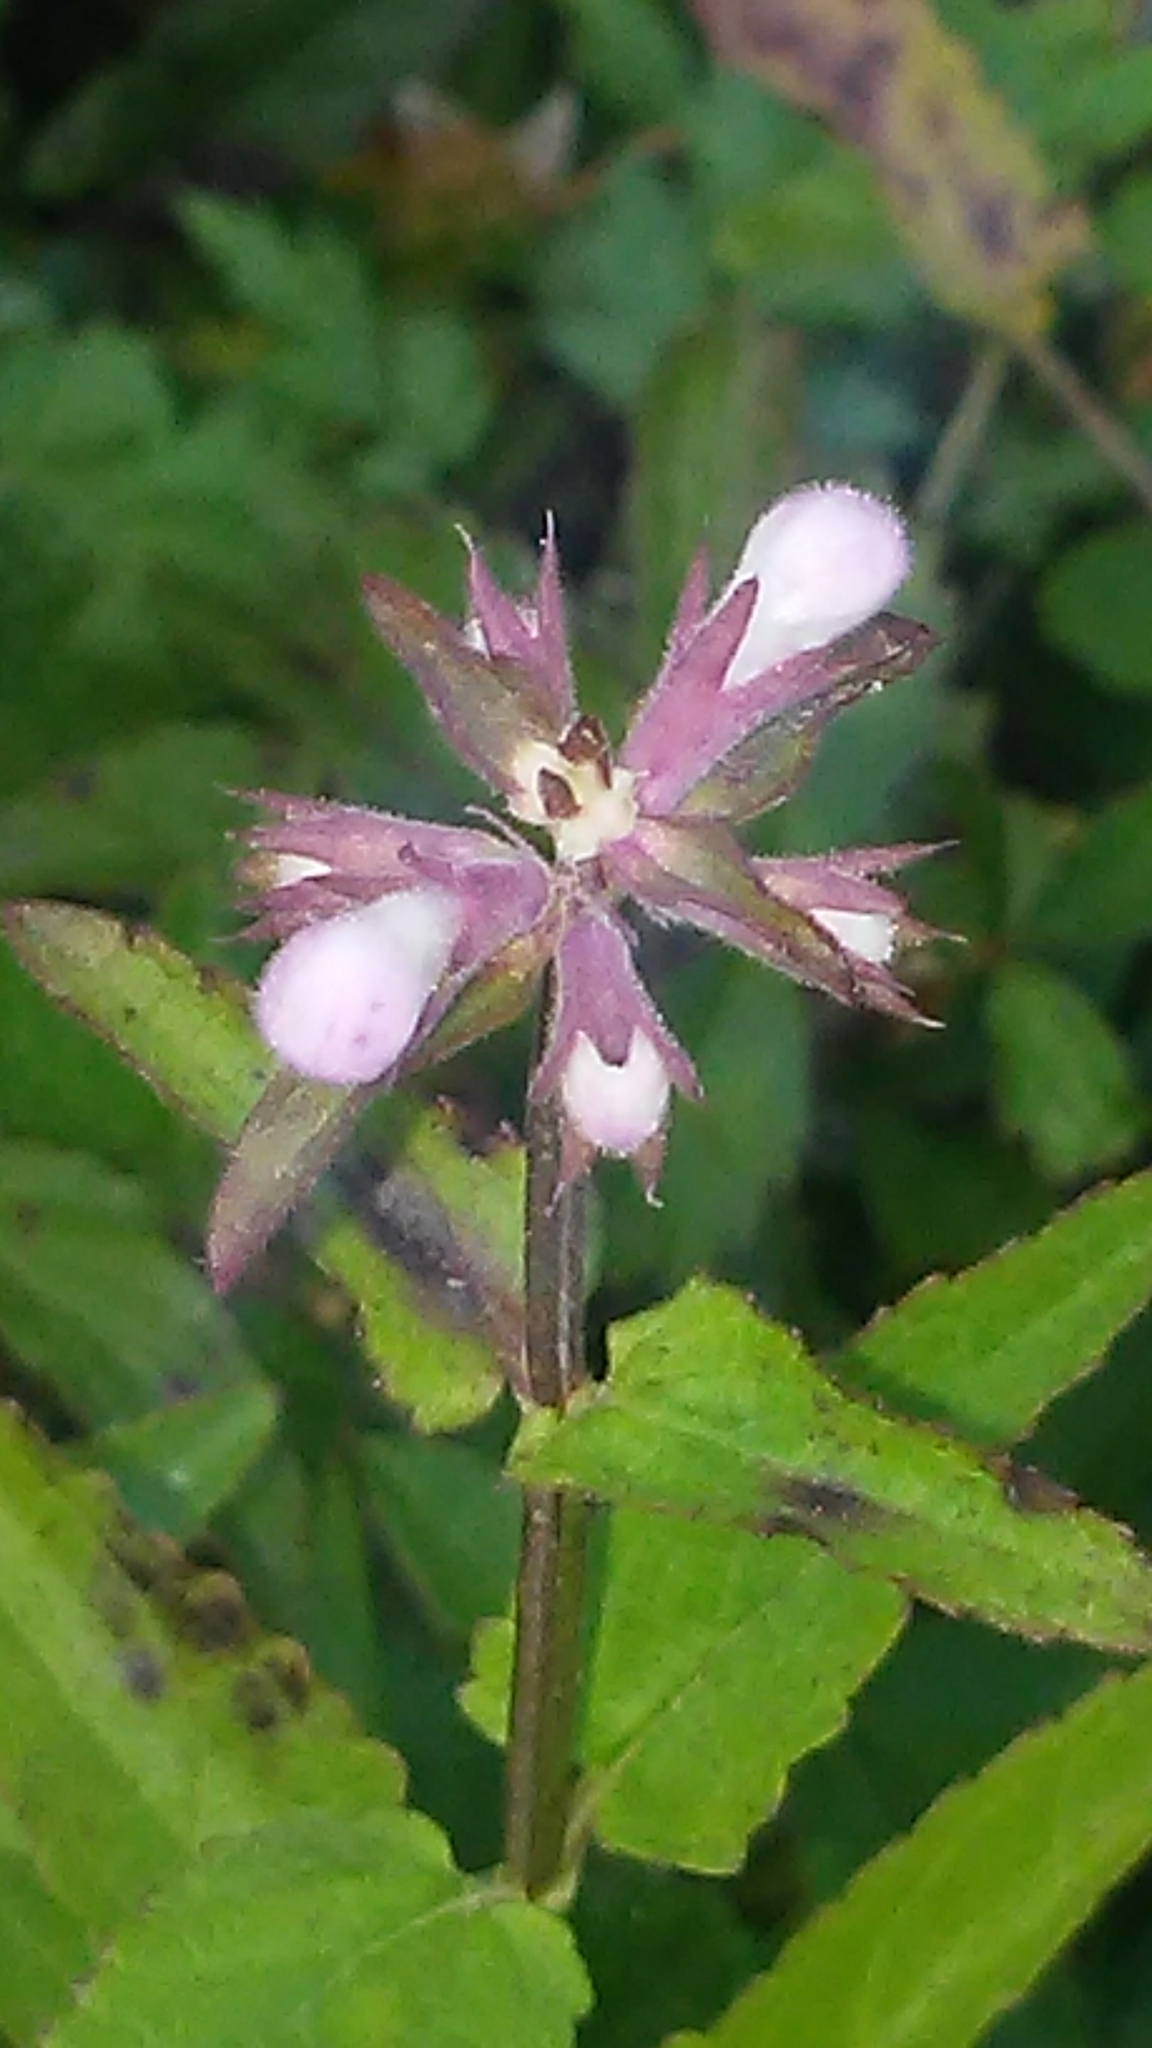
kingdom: Plantae
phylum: Tracheophyta
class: Magnoliopsida
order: Lamiales
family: Lamiaceae
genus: Stachys
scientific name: Stachys floridana
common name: Florida betony
